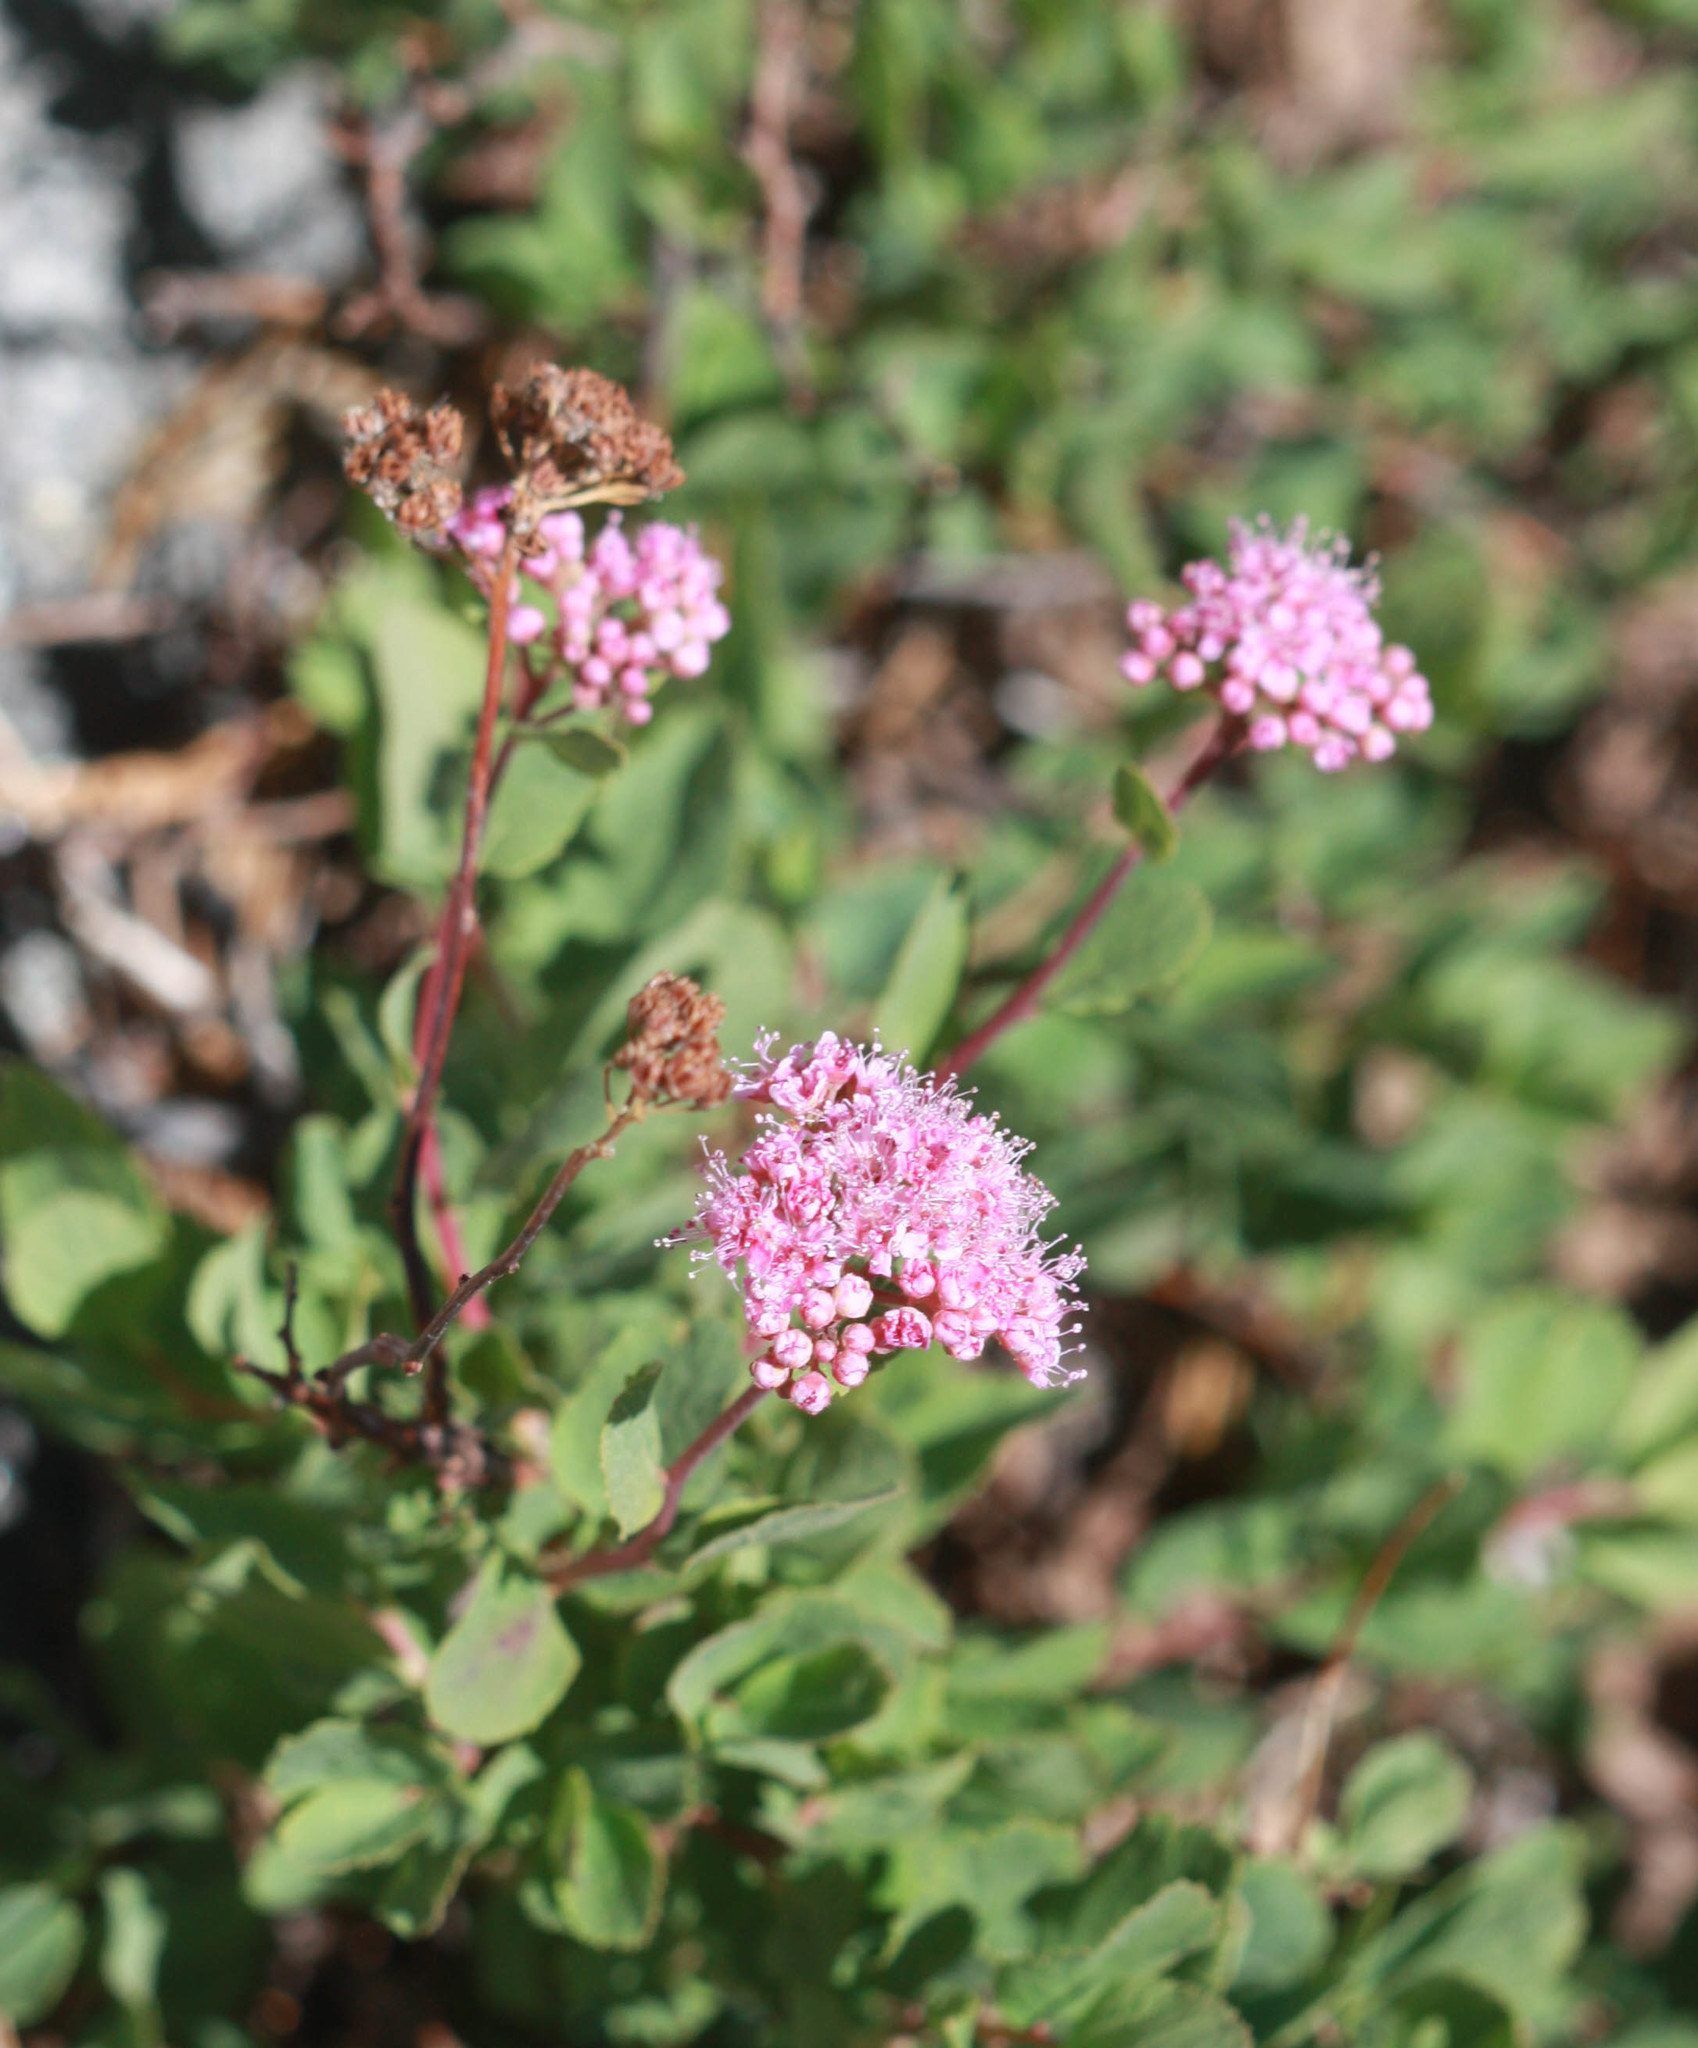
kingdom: Plantae
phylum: Tracheophyta
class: Magnoliopsida
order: Rosales
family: Rosaceae
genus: Spiraea
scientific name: Spiraea splendens
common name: Subalpine meadowsweet
